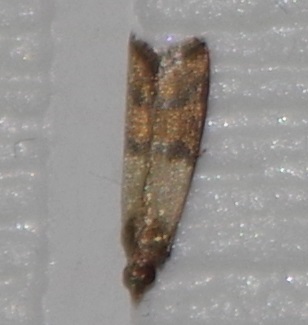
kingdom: Animalia
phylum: Arthropoda
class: Insecta
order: Lepidoptera
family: Pyralidae
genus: Plodia
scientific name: Plodia interpunctella
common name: Indian meal moth
